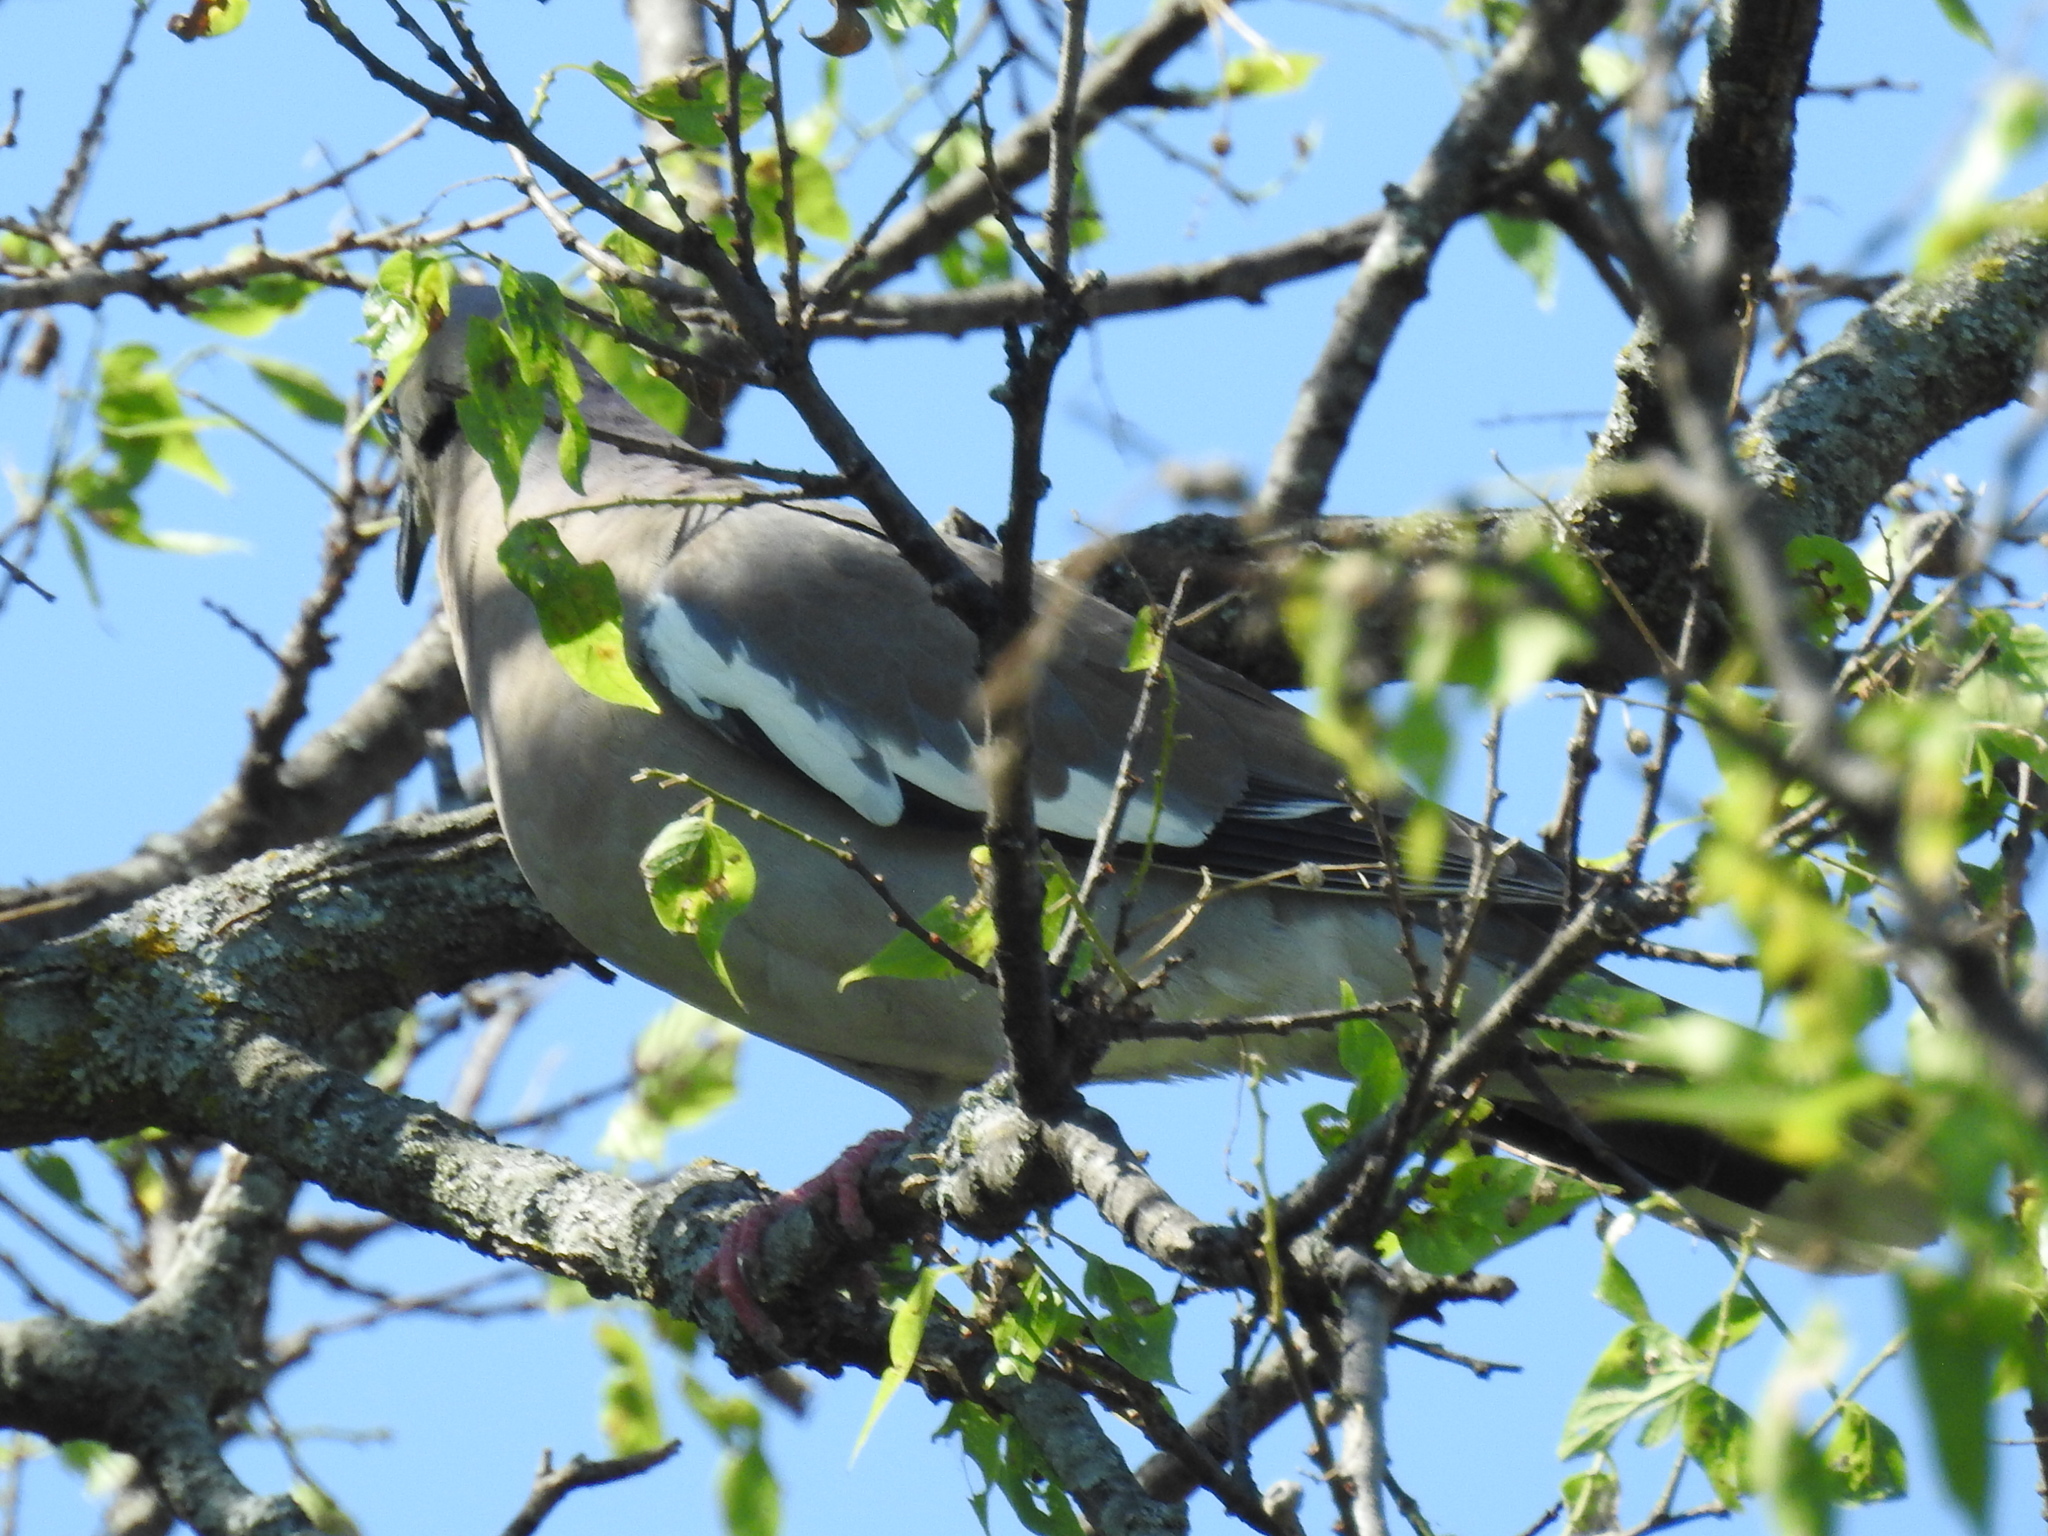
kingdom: Animalia
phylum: Chordata
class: Aves
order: Columbiformes
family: Columbidae
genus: Zenaida
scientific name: Zenaida asiatica
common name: White-winged dove
